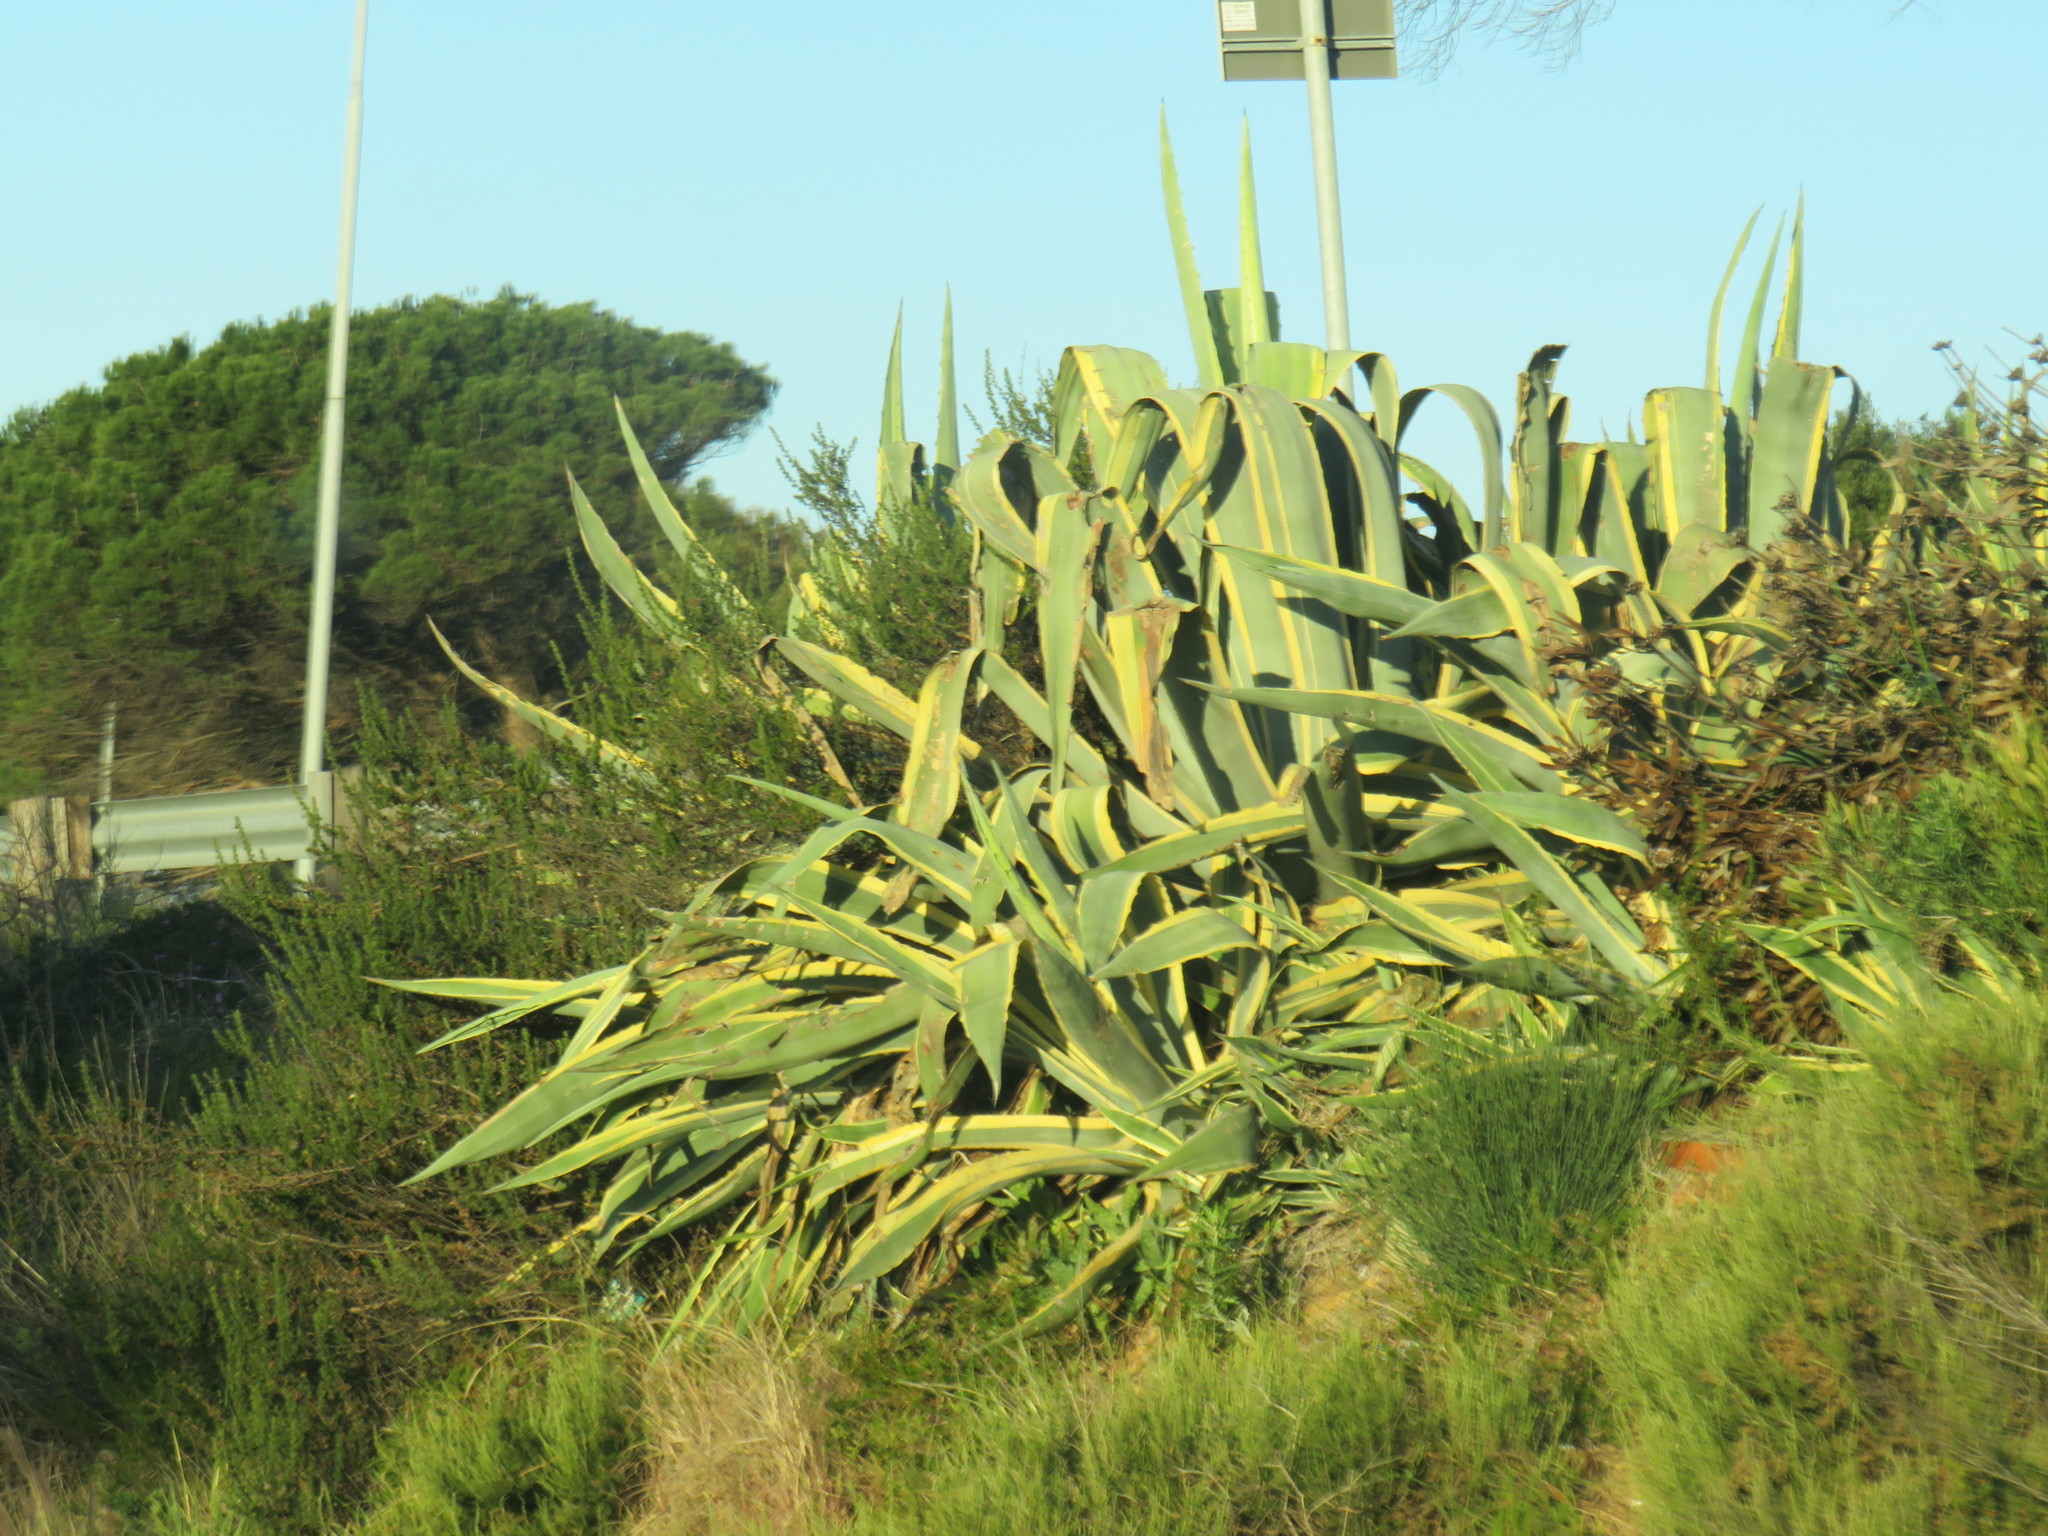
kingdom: Plantae
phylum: Tracheophyta
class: Liliopsida
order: Asparagales
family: Asparagaceae
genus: Agave
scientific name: Agave americana
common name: Centuryplant
